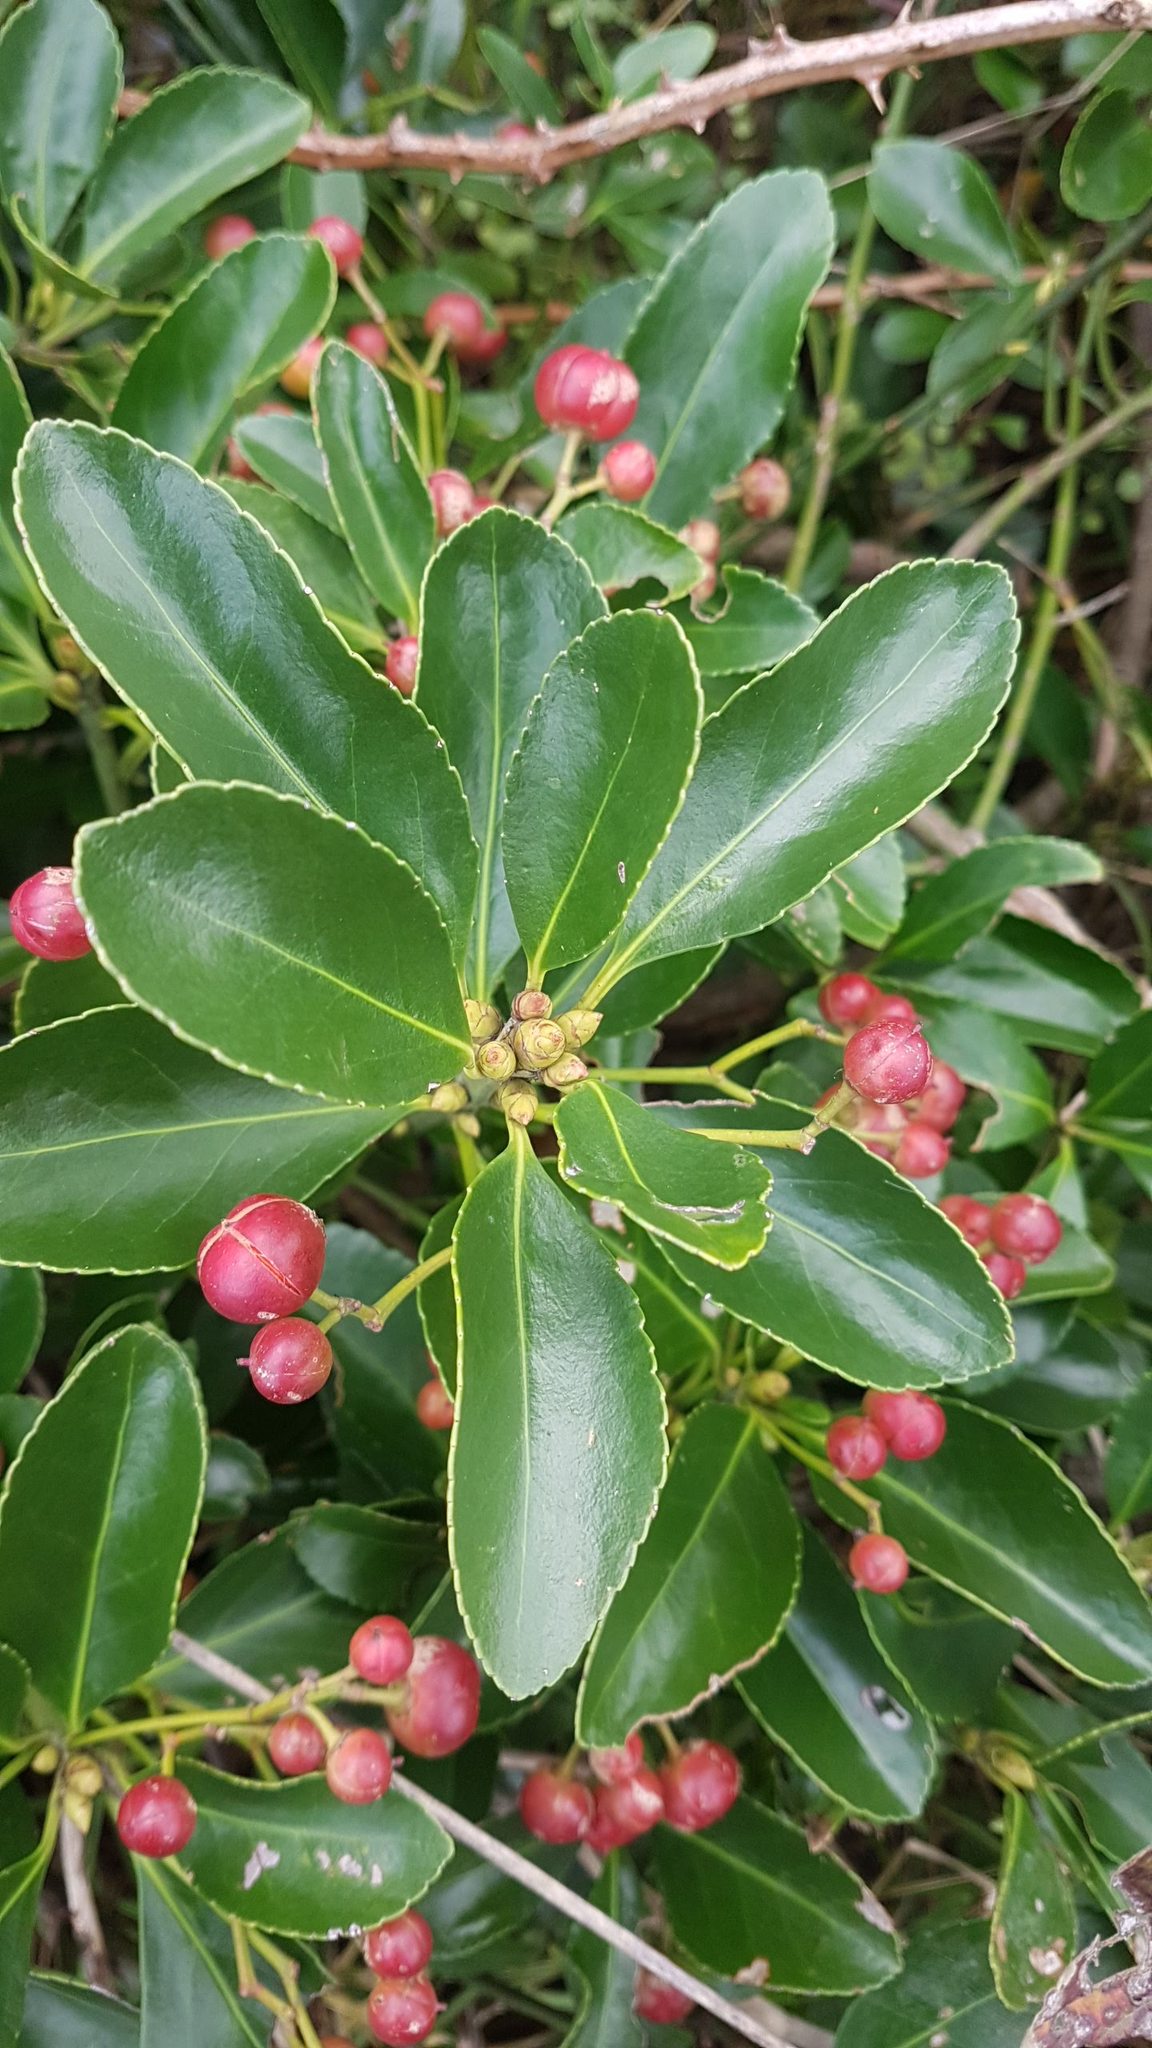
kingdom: Plantae
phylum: Tracheophyta
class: Magnoliopsida
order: Celastrales
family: Celastraceae
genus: Euonymus
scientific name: Euonymus japonicus
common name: Japanese spindletree
